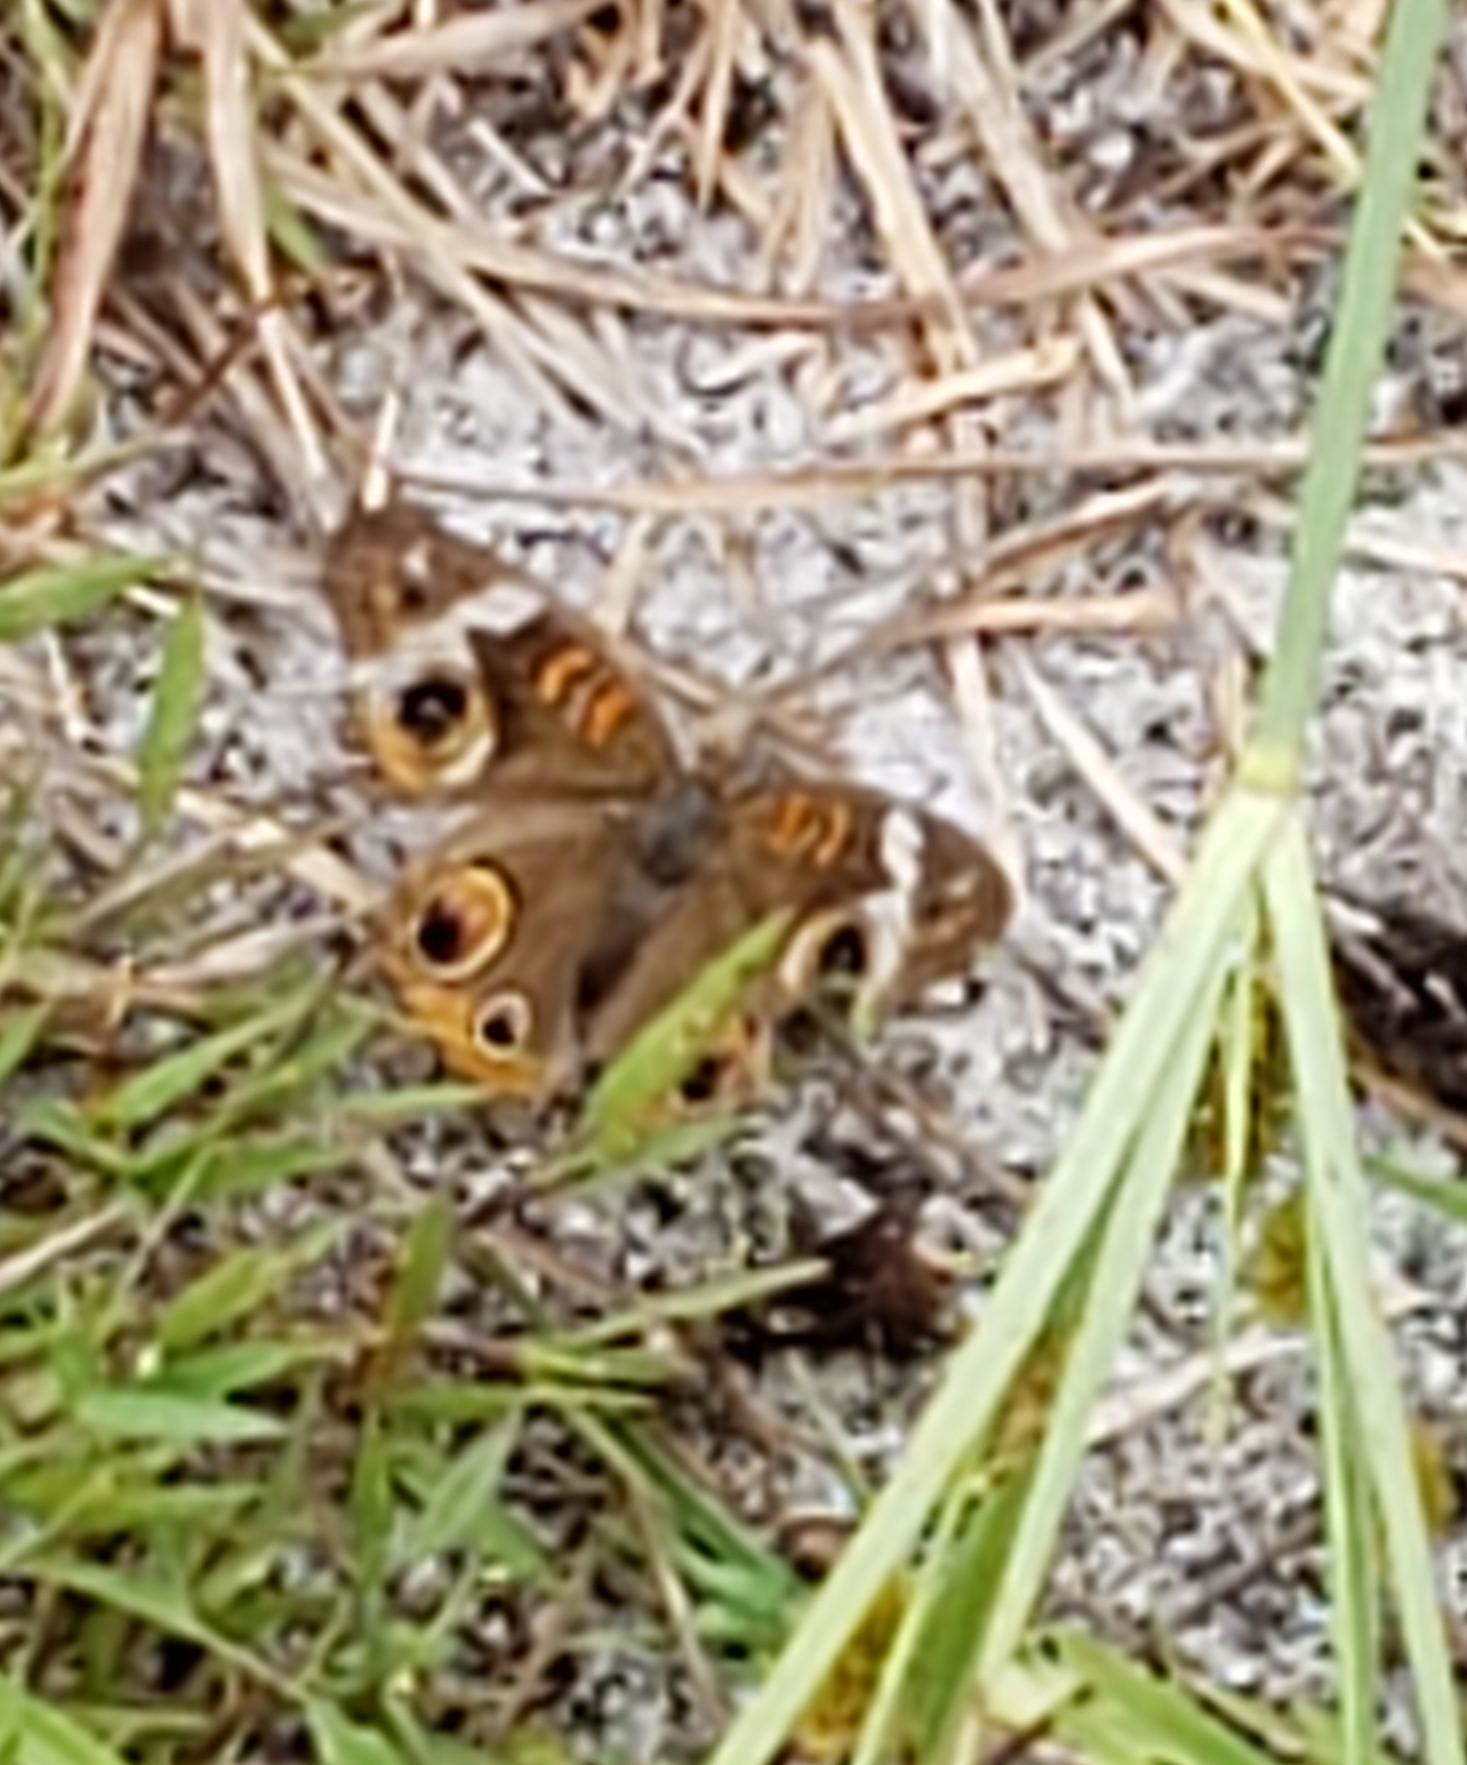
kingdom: Animalia
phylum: Arthropoda
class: Insecta
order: Lepidoptera
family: Nymphalidae
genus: Junonia
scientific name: Junonia coenia
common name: Common buckeye
